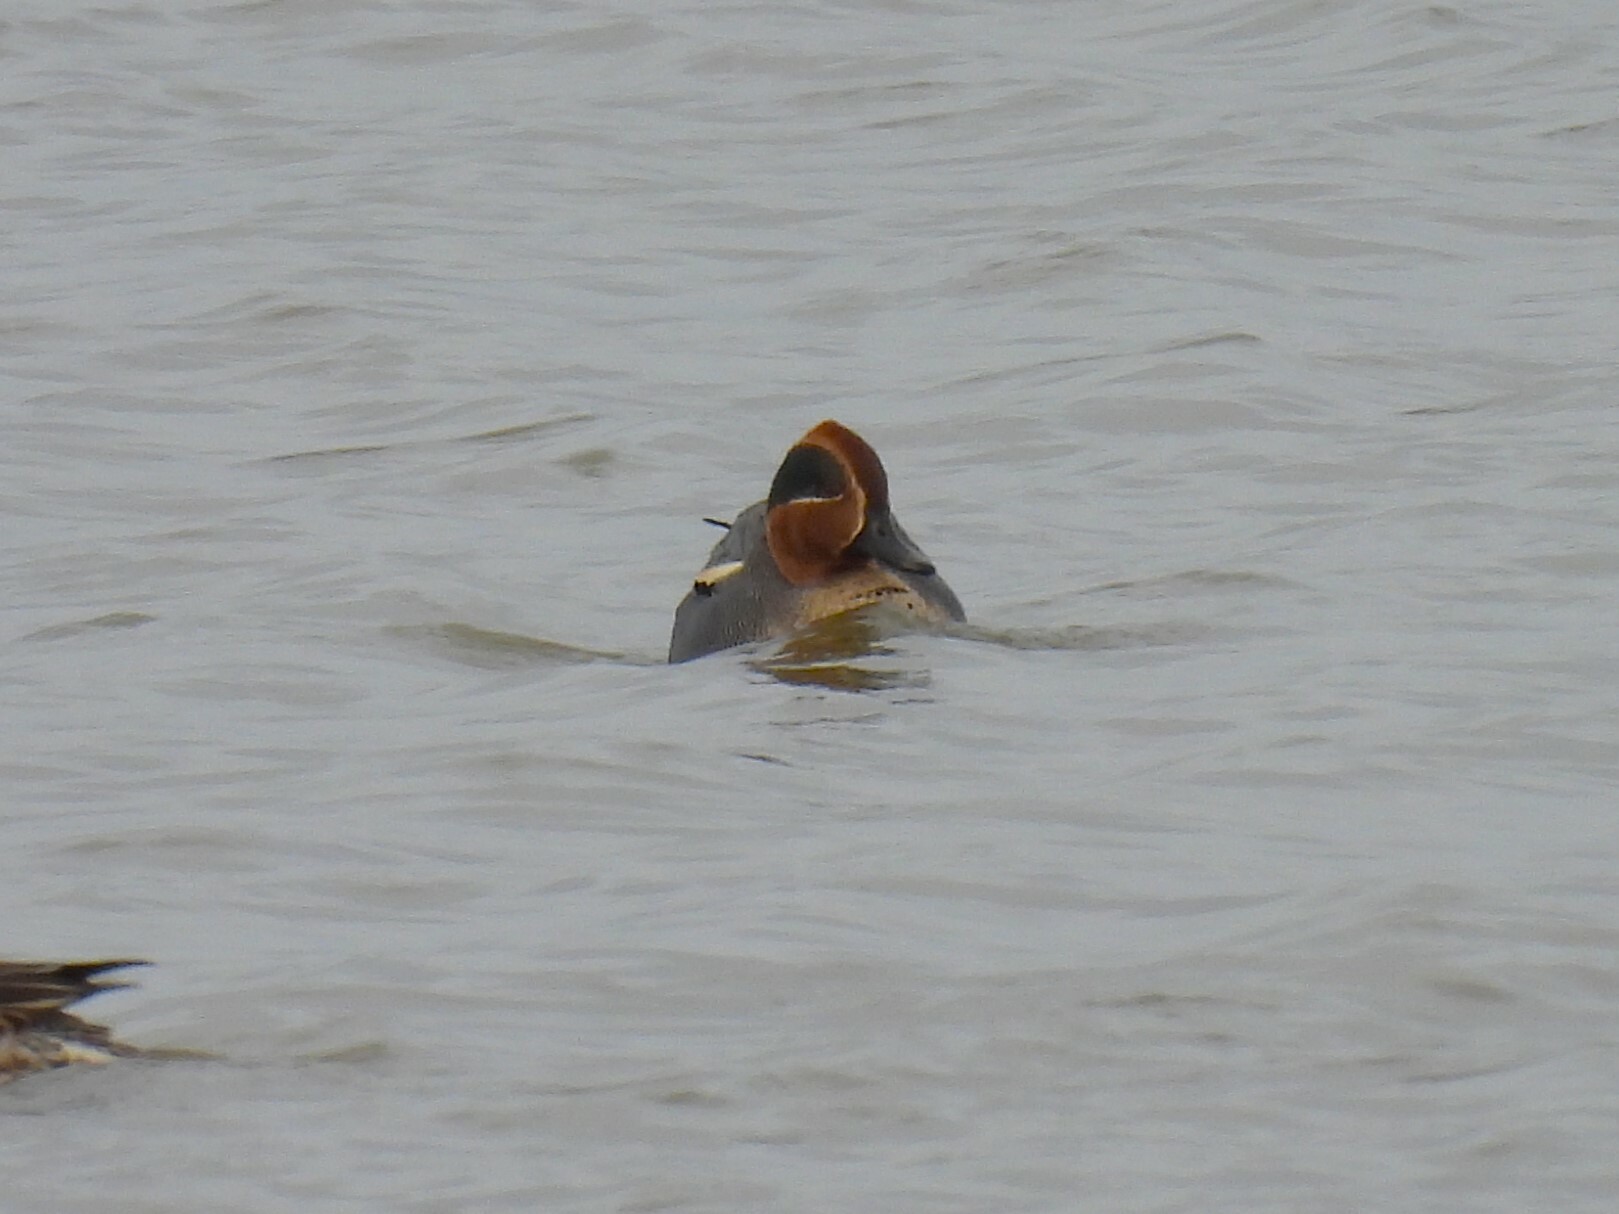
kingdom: Animalia
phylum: Chordata
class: Aves
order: Anseriformes
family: Anatidae
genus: Anas
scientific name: Anas crecca
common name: Eurasian teal
